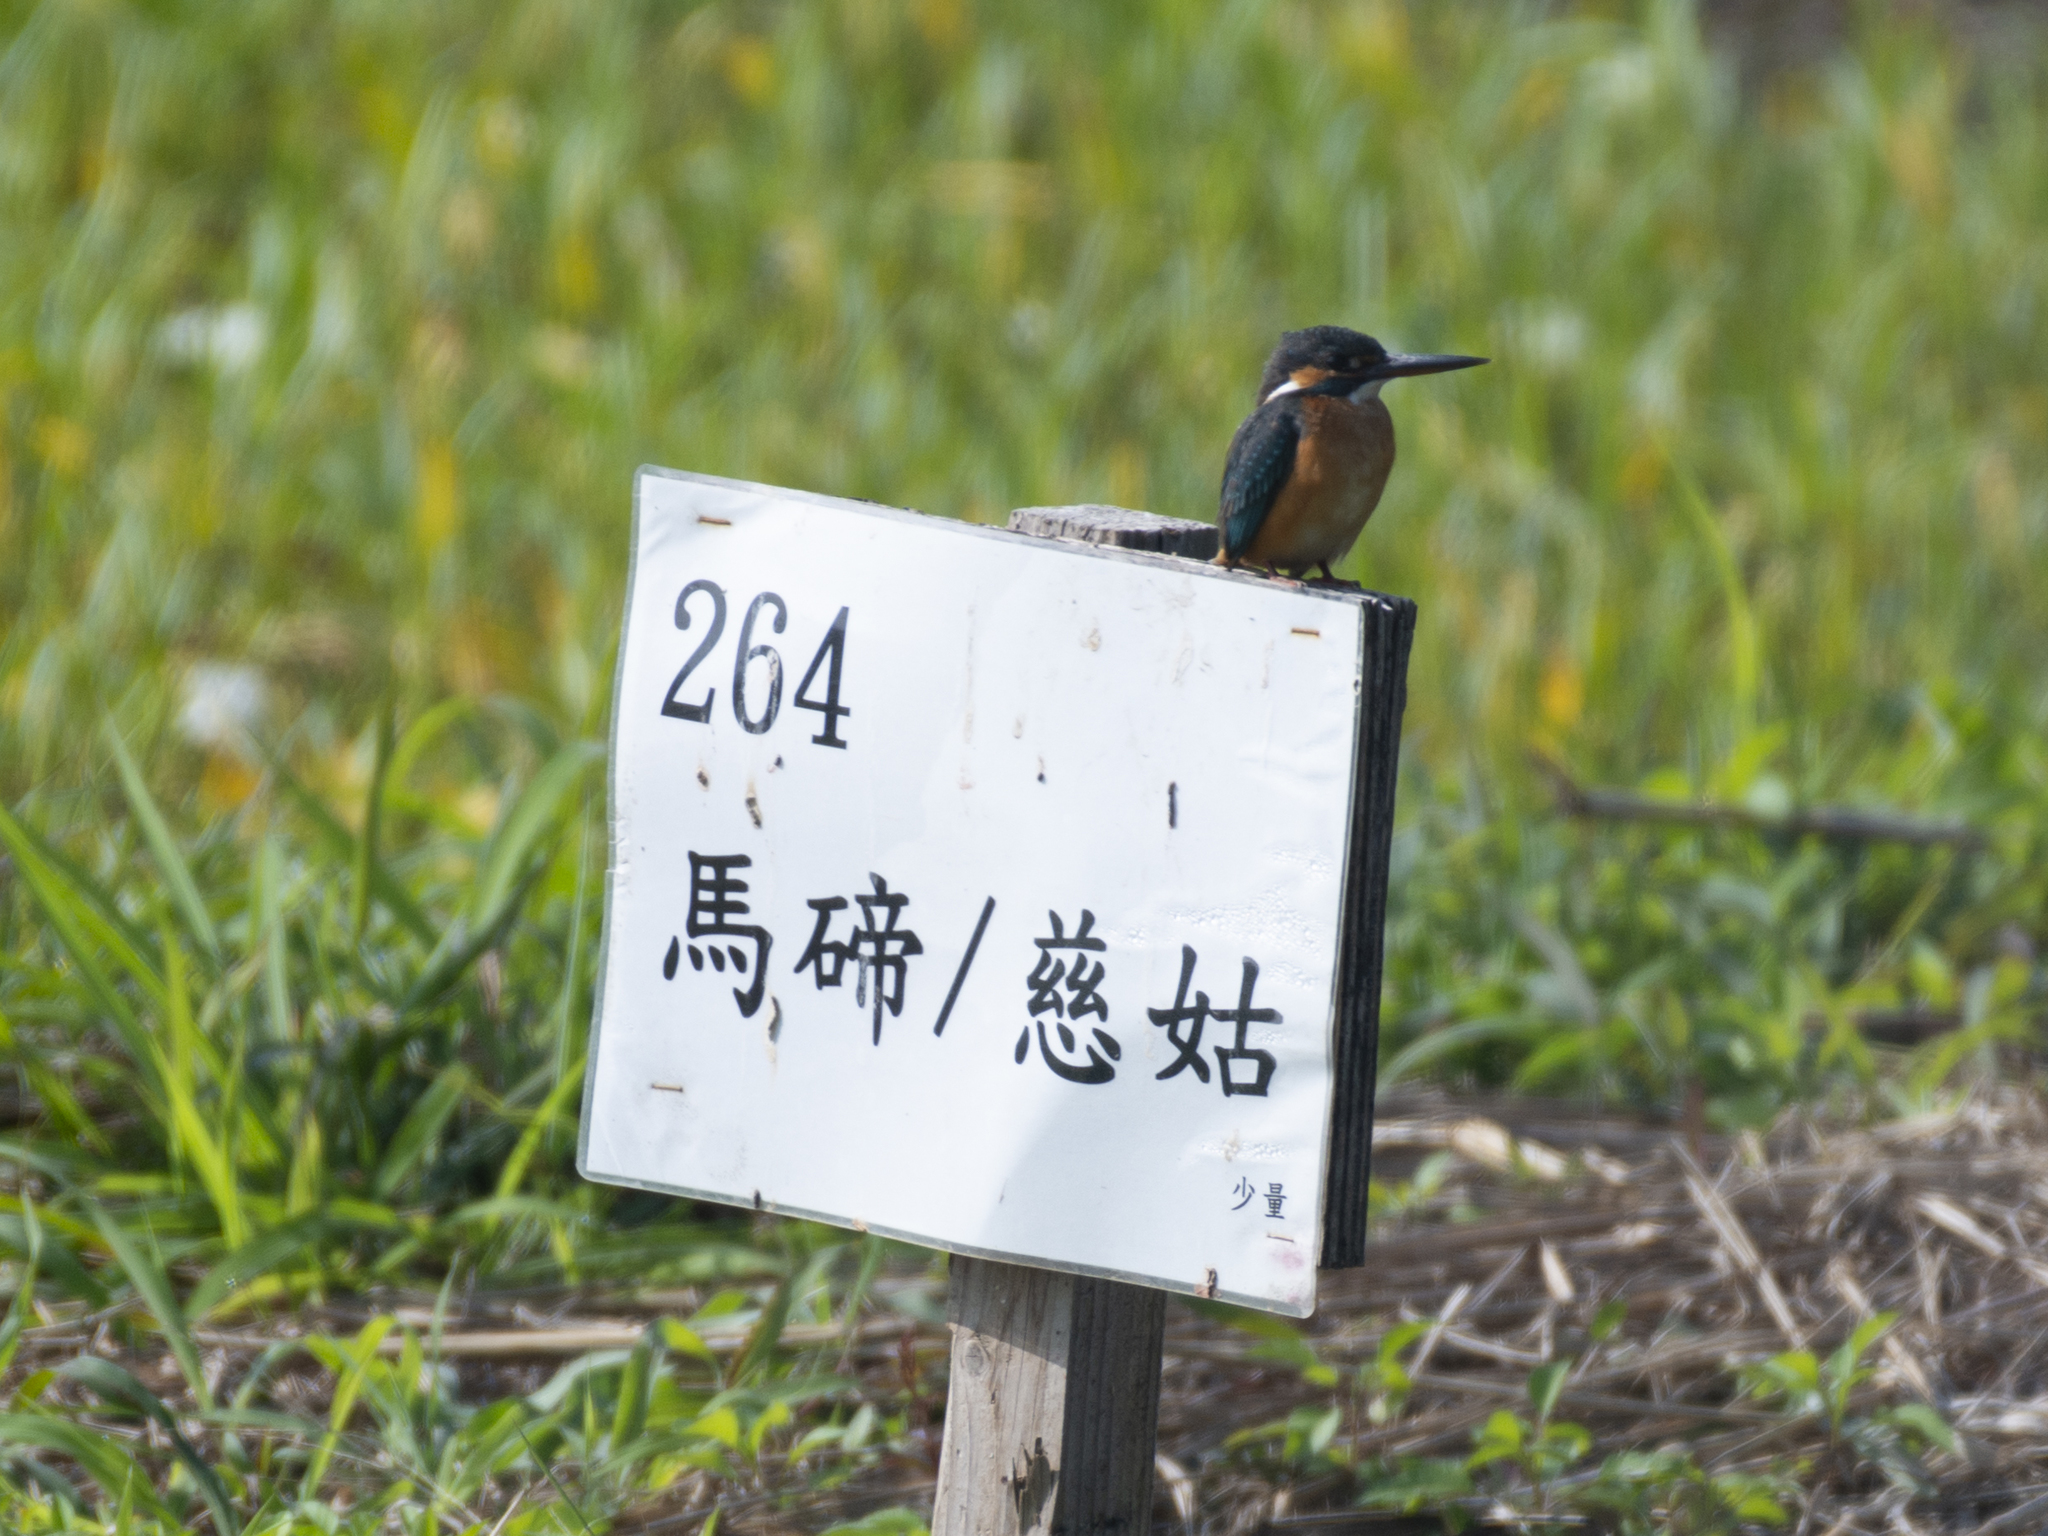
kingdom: Animalia
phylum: Chordata
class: Aves
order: Coraciiformes
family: Alcedinidae
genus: Alcedo
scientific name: Alcedo atthis
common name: Common kingfisher
